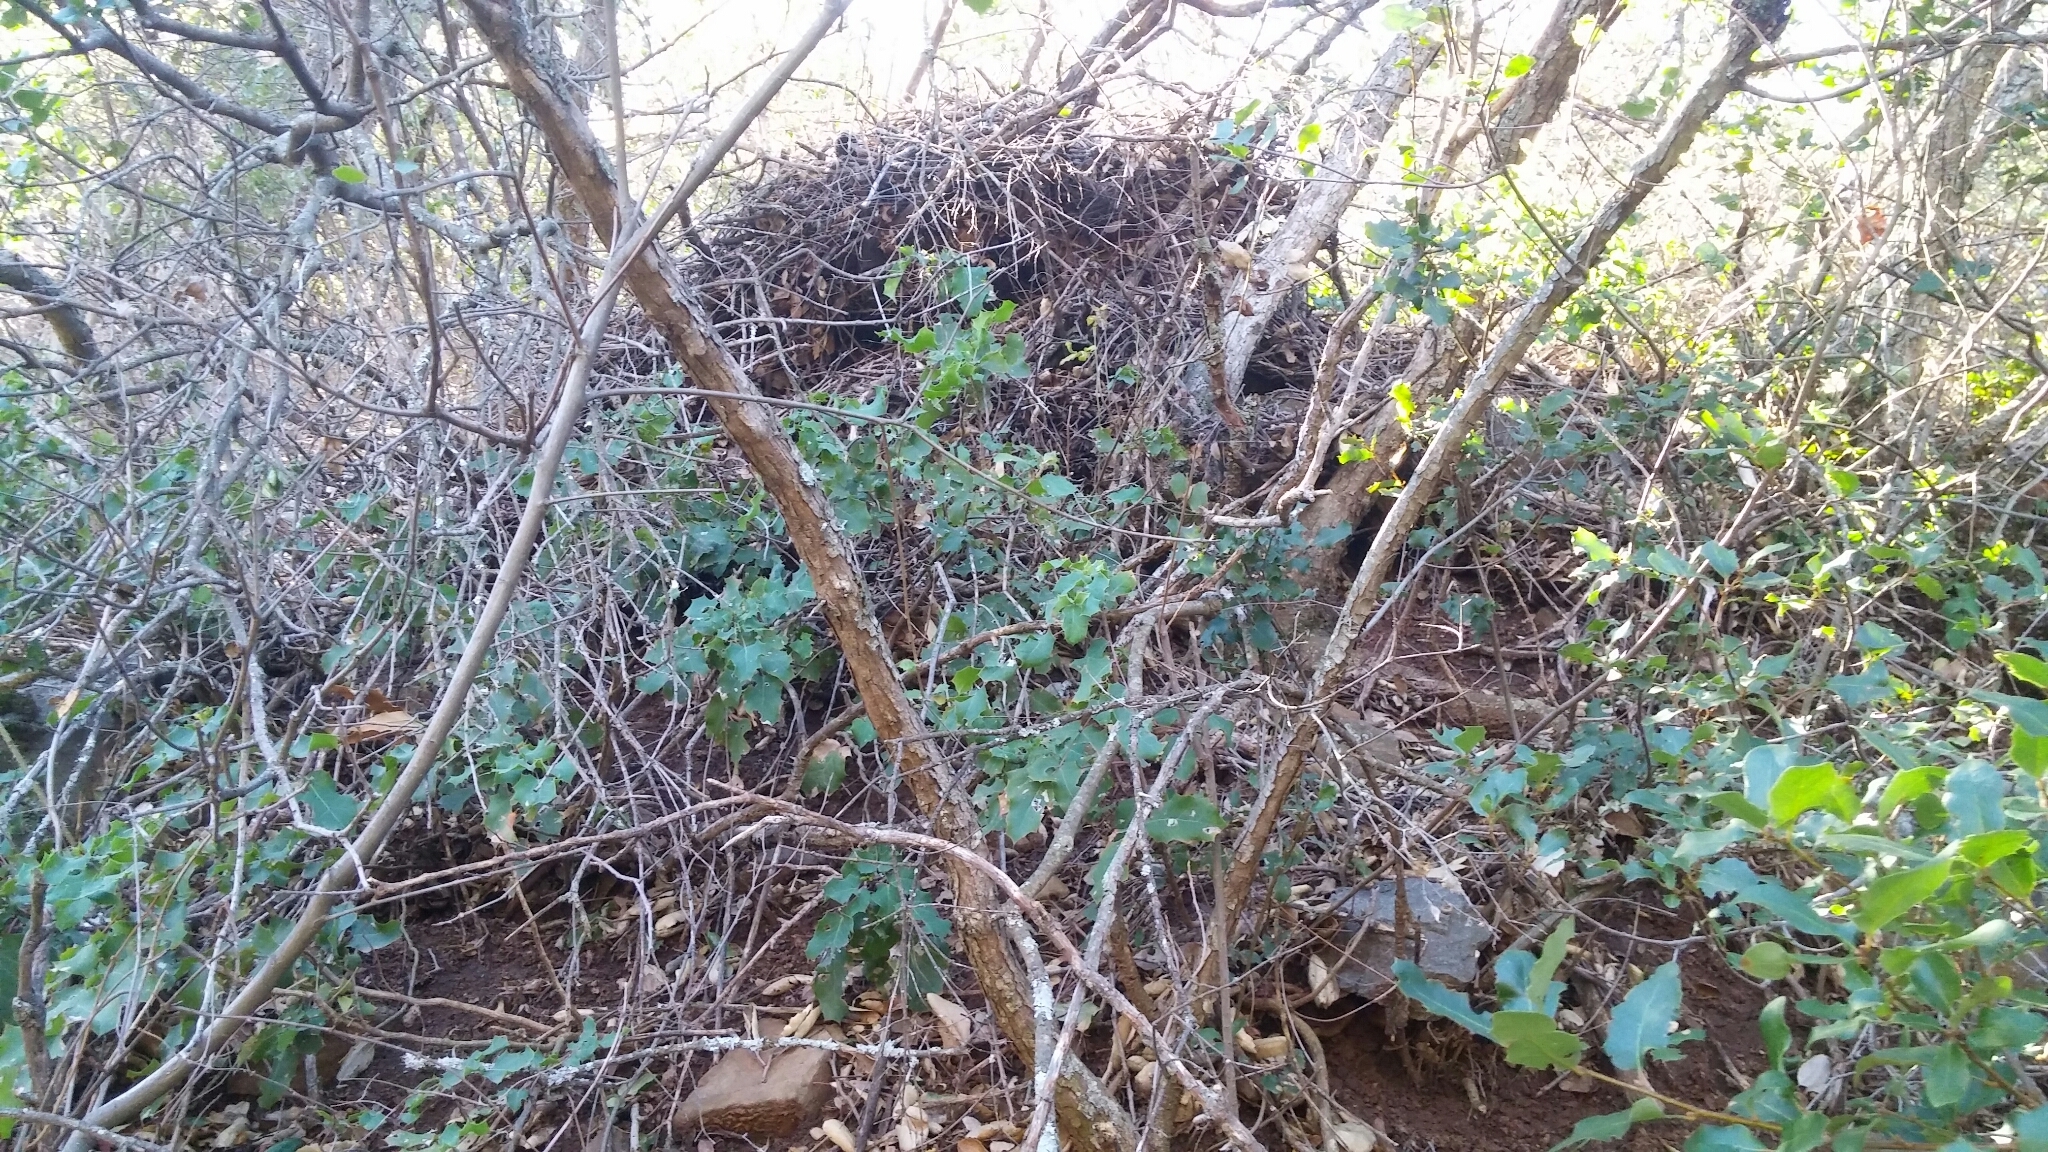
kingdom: Animalia
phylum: Chordata
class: Mammalia
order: Rodentia
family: Cricetidae
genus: Neotoma
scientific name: Neotoma bryanti
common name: Bryant's woodrat
